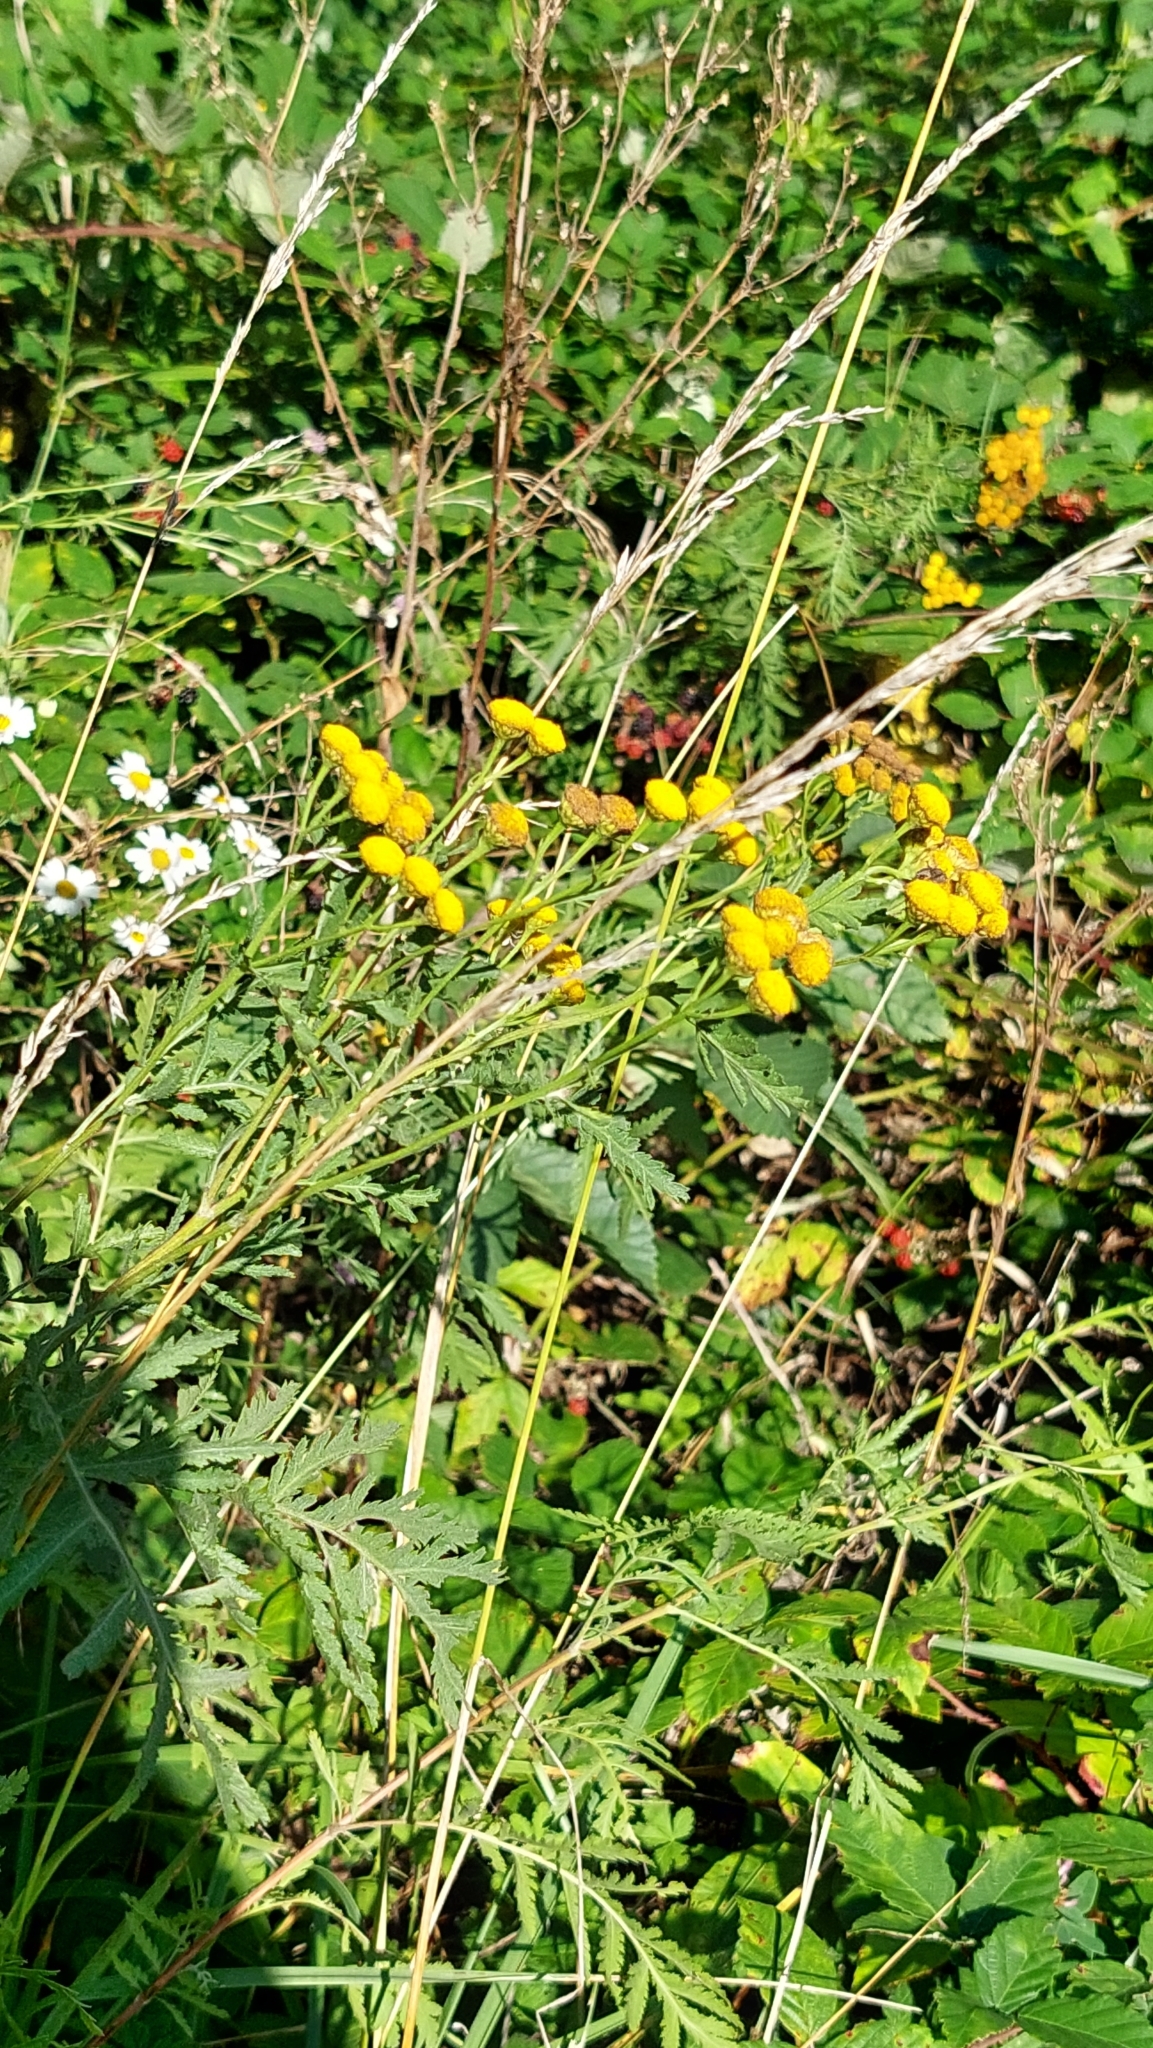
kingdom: Plantae
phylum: Tracheophyta
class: Magnoliopsida
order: Asterales
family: Asteraceae
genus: Tanacetum
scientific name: Tanacetum vulgare
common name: Common tansy
